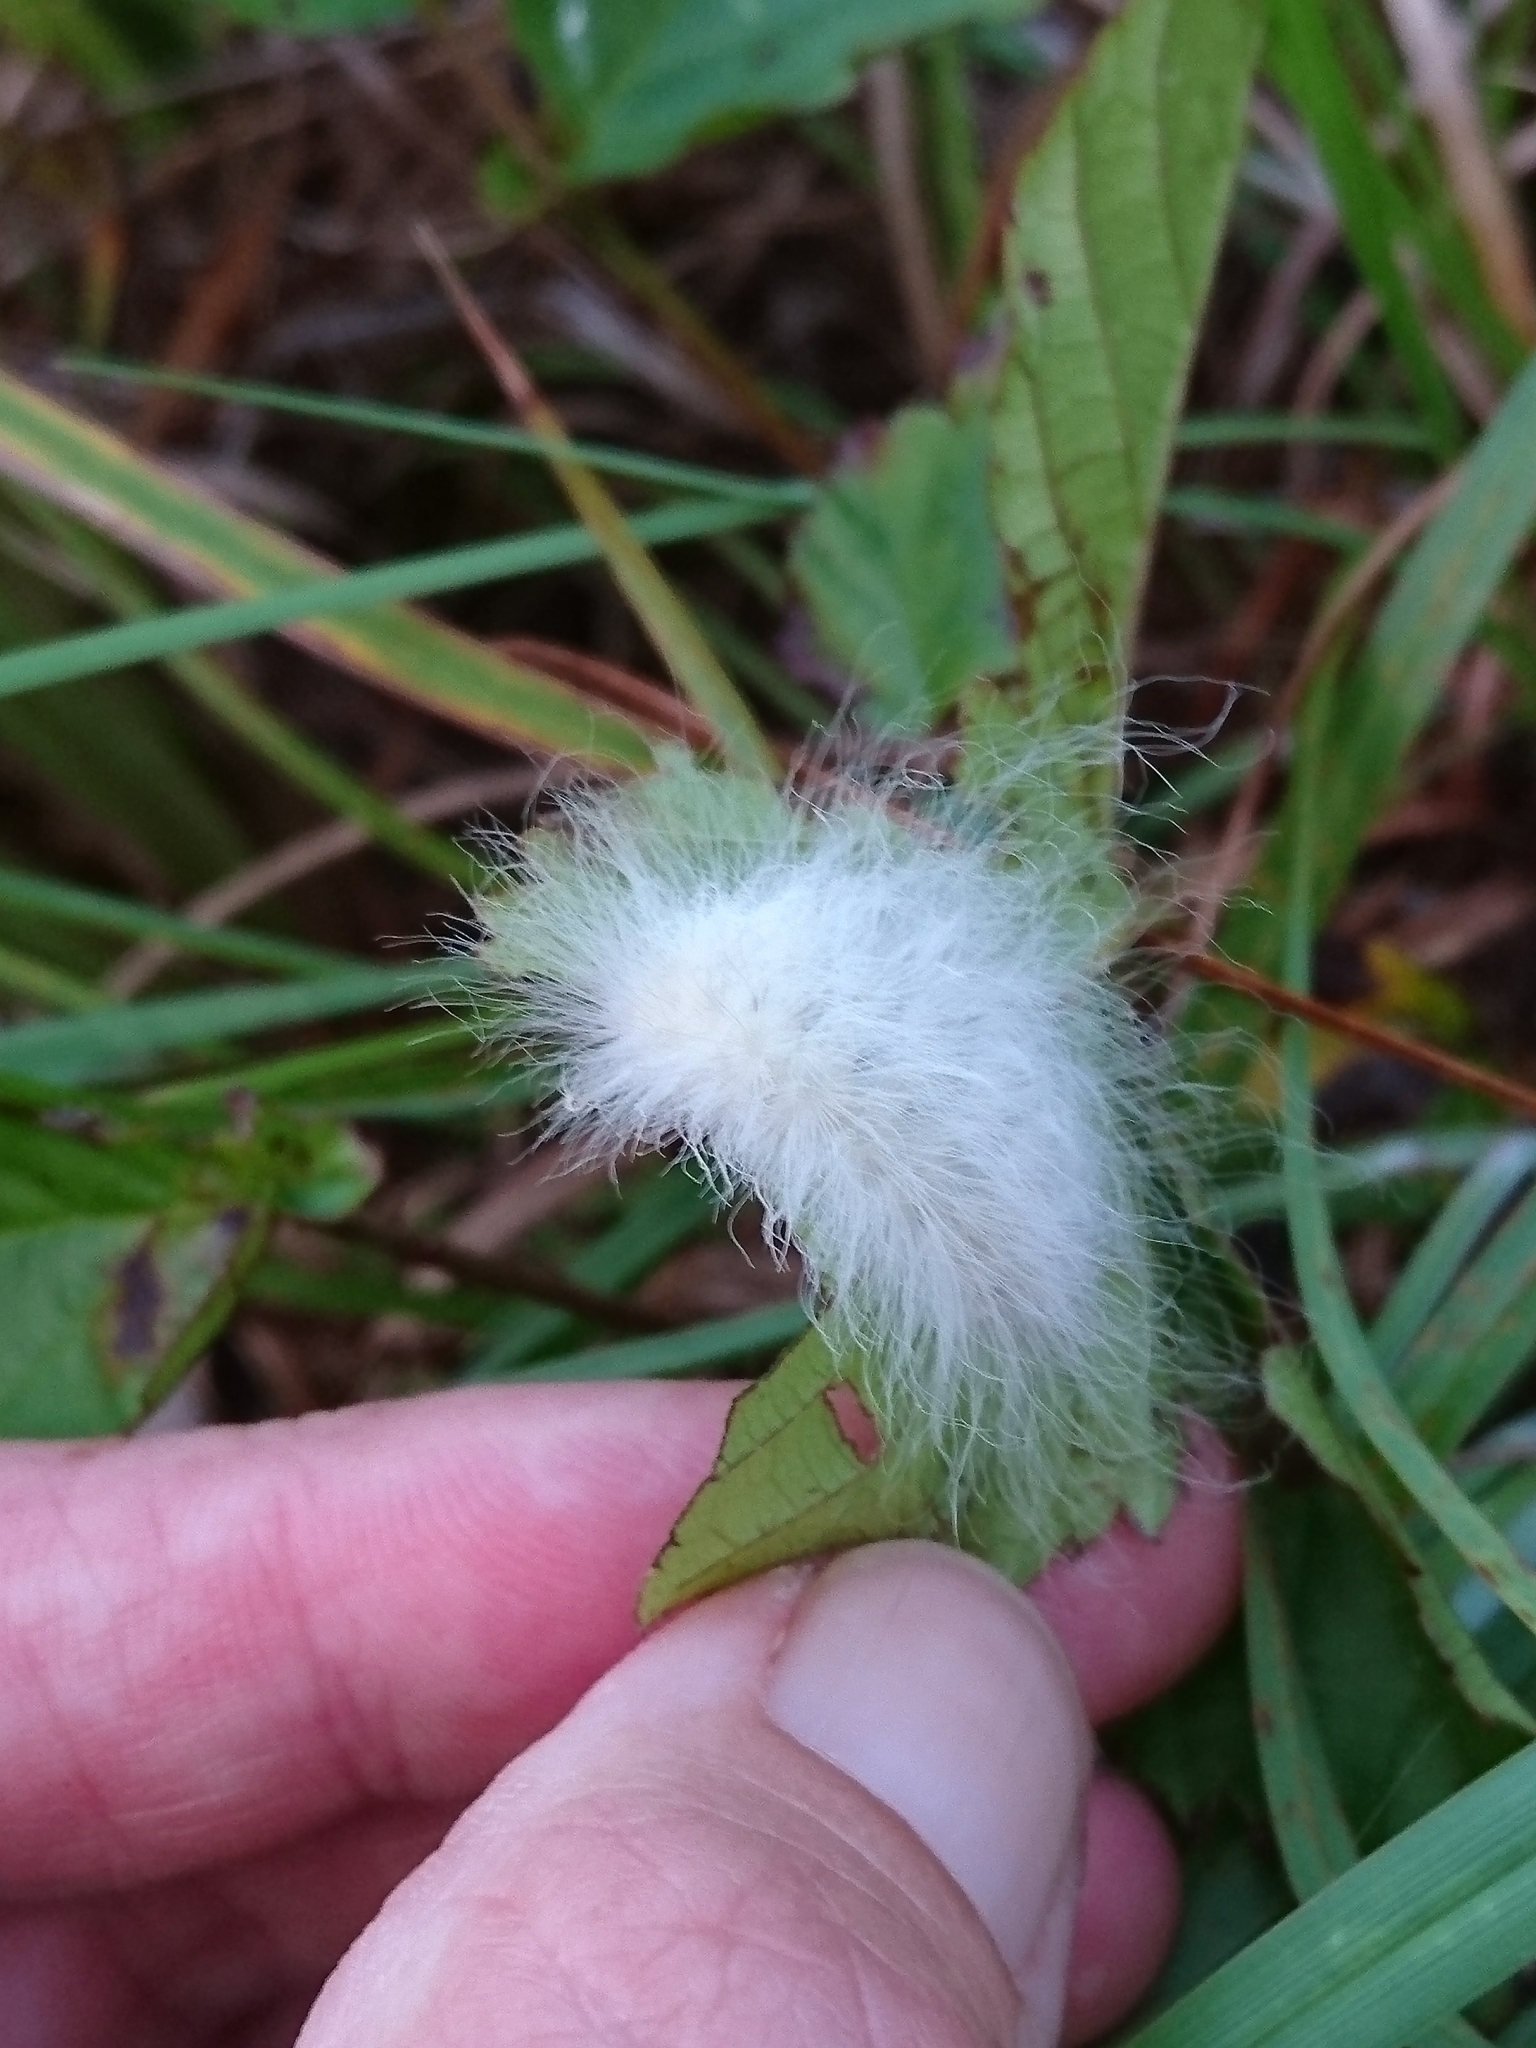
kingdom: Animalia
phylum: Arthropoda
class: Insecta
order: Lepidoptera
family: Megalopygidae
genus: Megalopyge
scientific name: Megalopyge crispata
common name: Black-waved flannel moth
